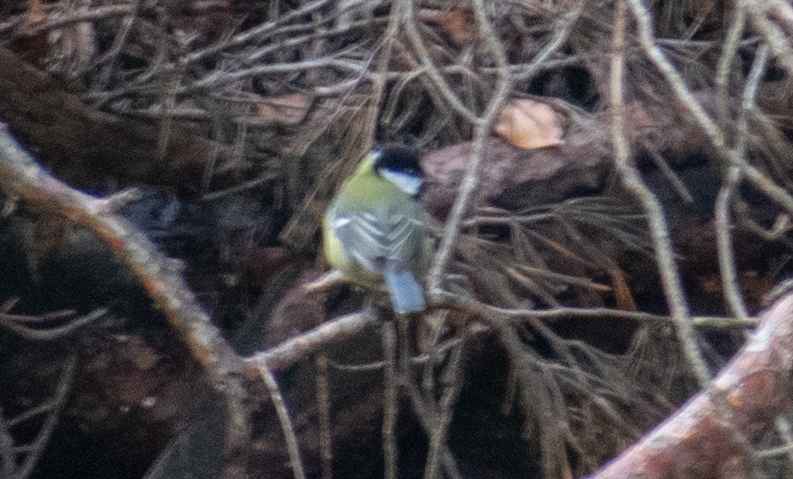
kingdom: Animalia
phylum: Chordata
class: Aves
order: Passeriformes
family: Paridae
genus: Parus
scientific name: Parus major
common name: Great tit
